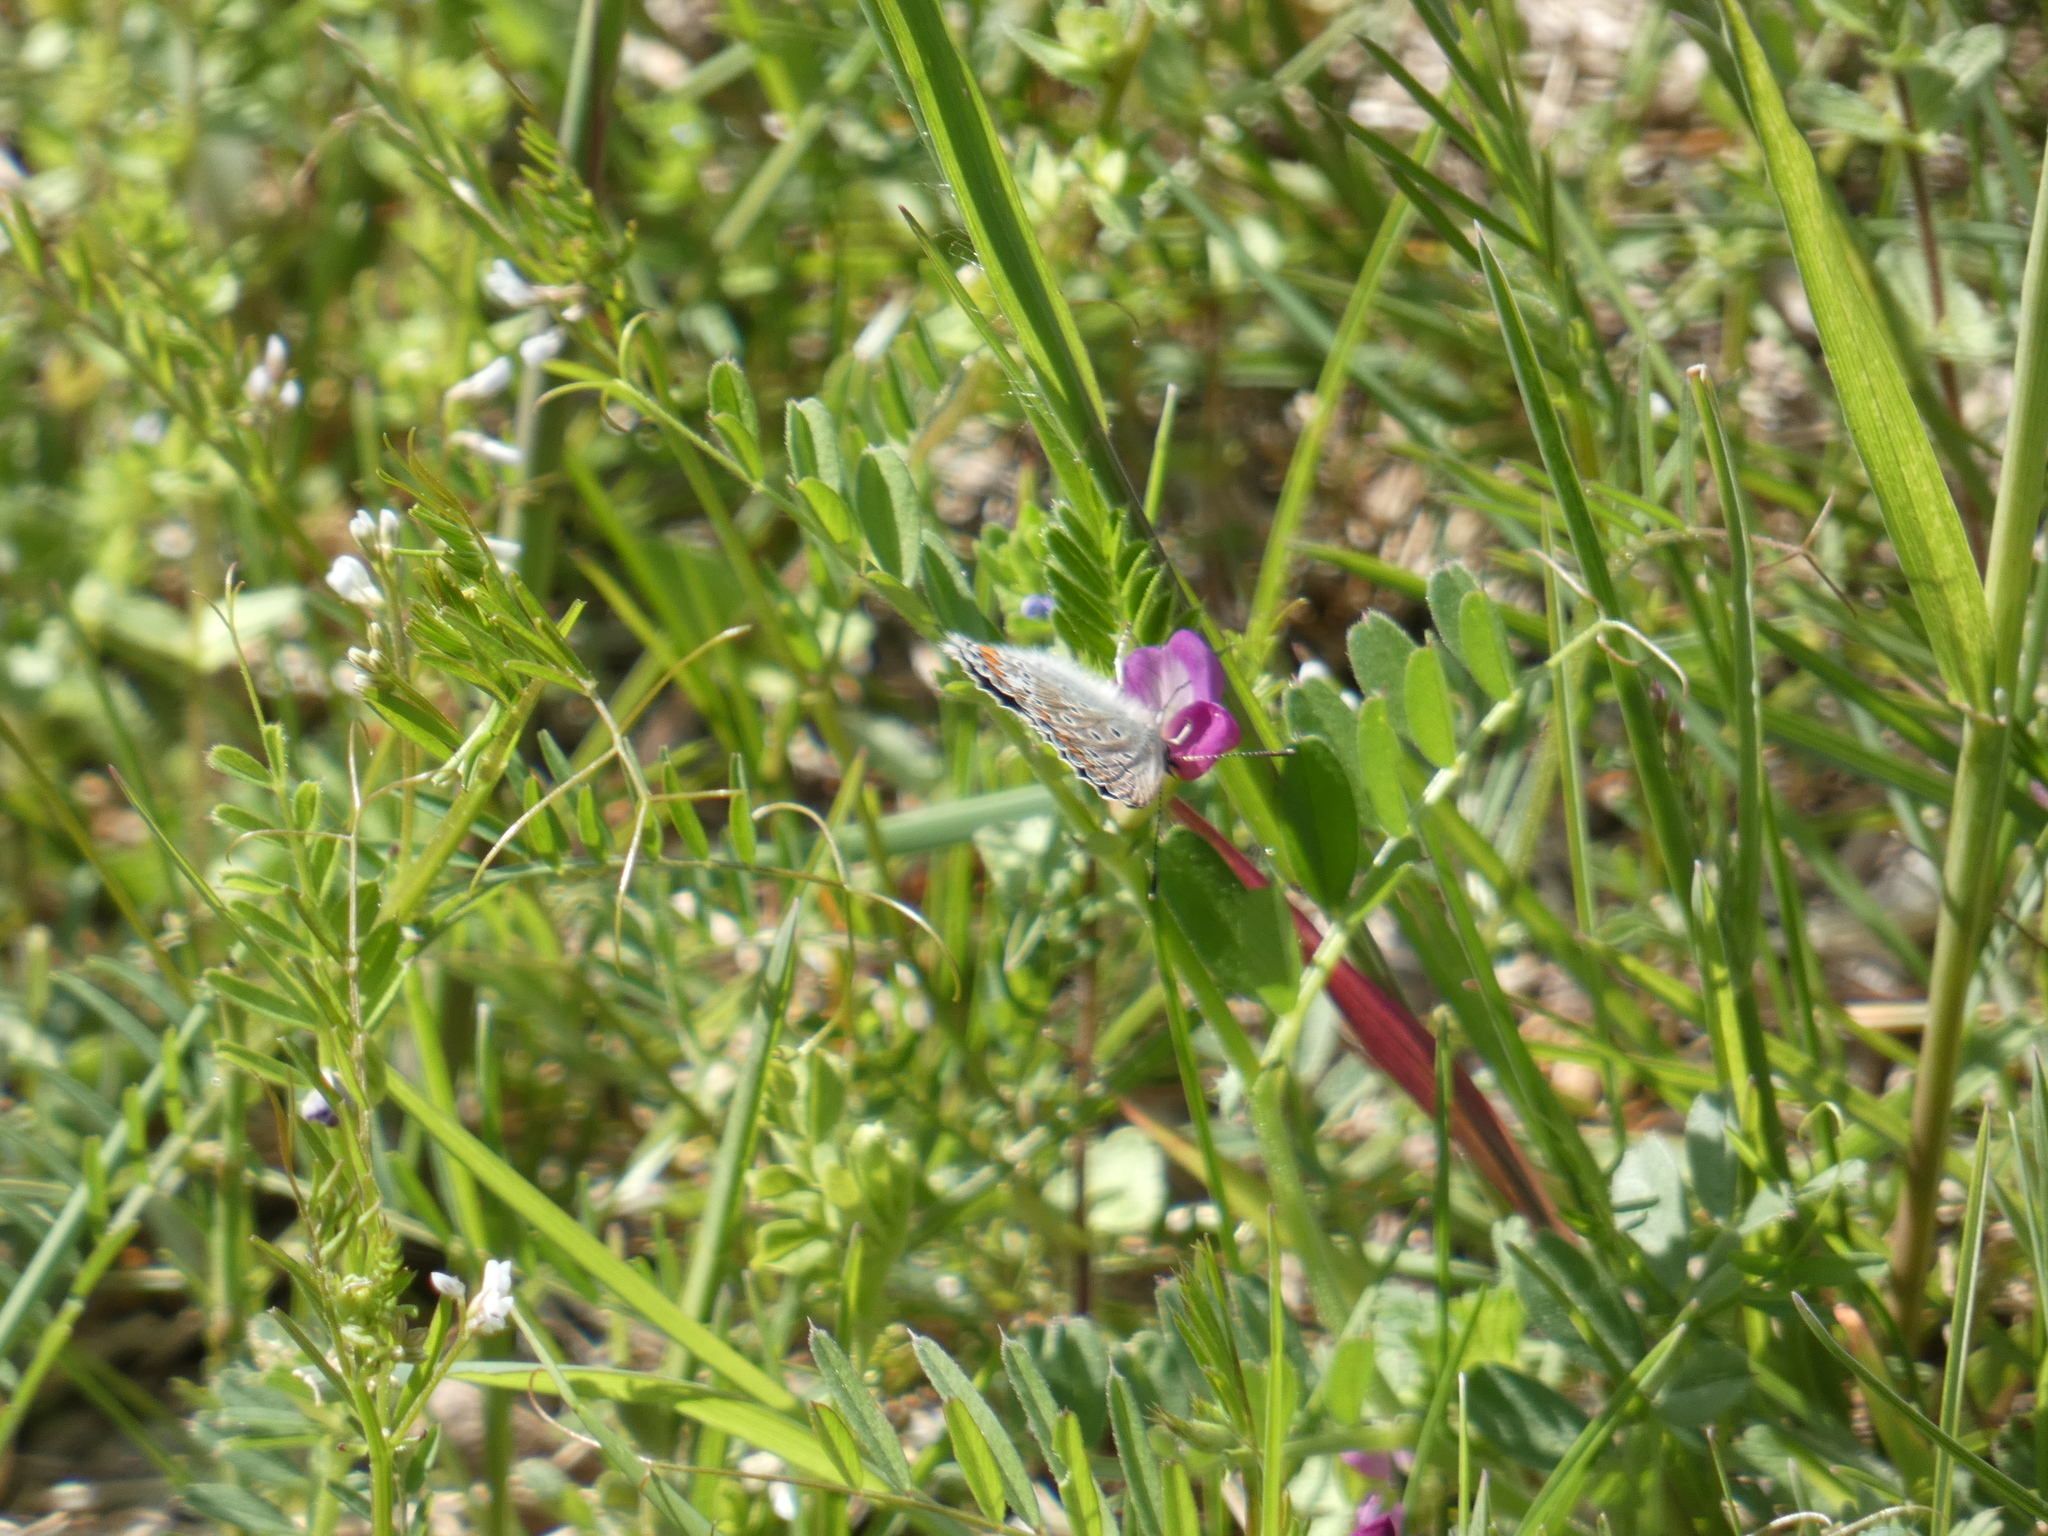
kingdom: Animalia
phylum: Arthropoda
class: Insecta
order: Lepidoptera
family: Lycaenidae
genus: Polyommatus
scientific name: Polyommatus icarus
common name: Common blue
